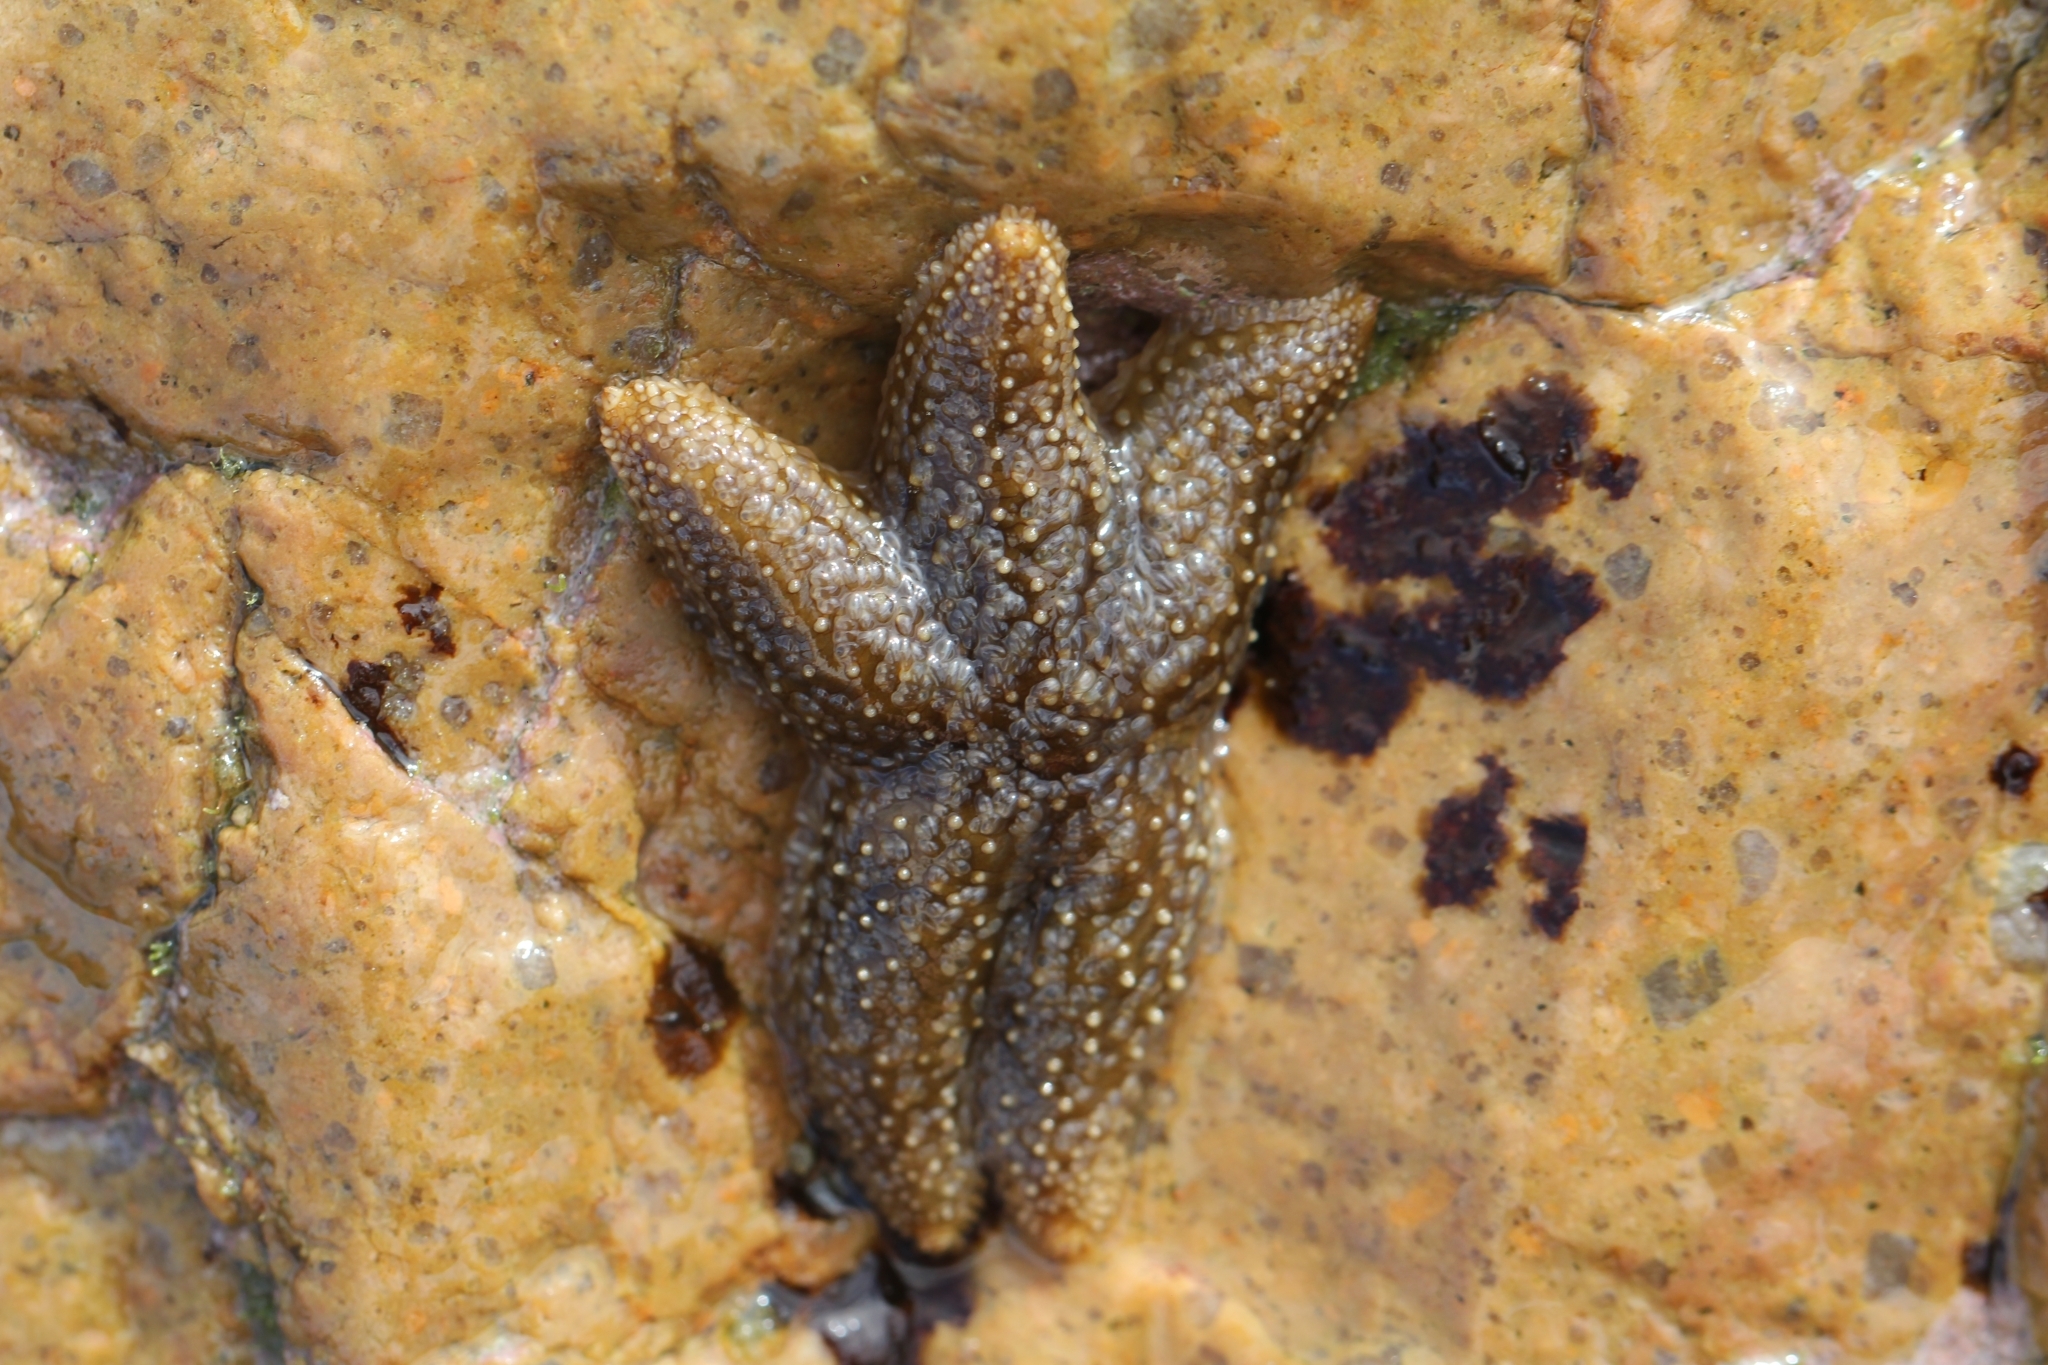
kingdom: Animalia
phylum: Echinodermata
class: Asteroidea
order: Forcipulatida
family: Asteriidae
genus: Anasterias
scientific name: Anasterias antarctica
